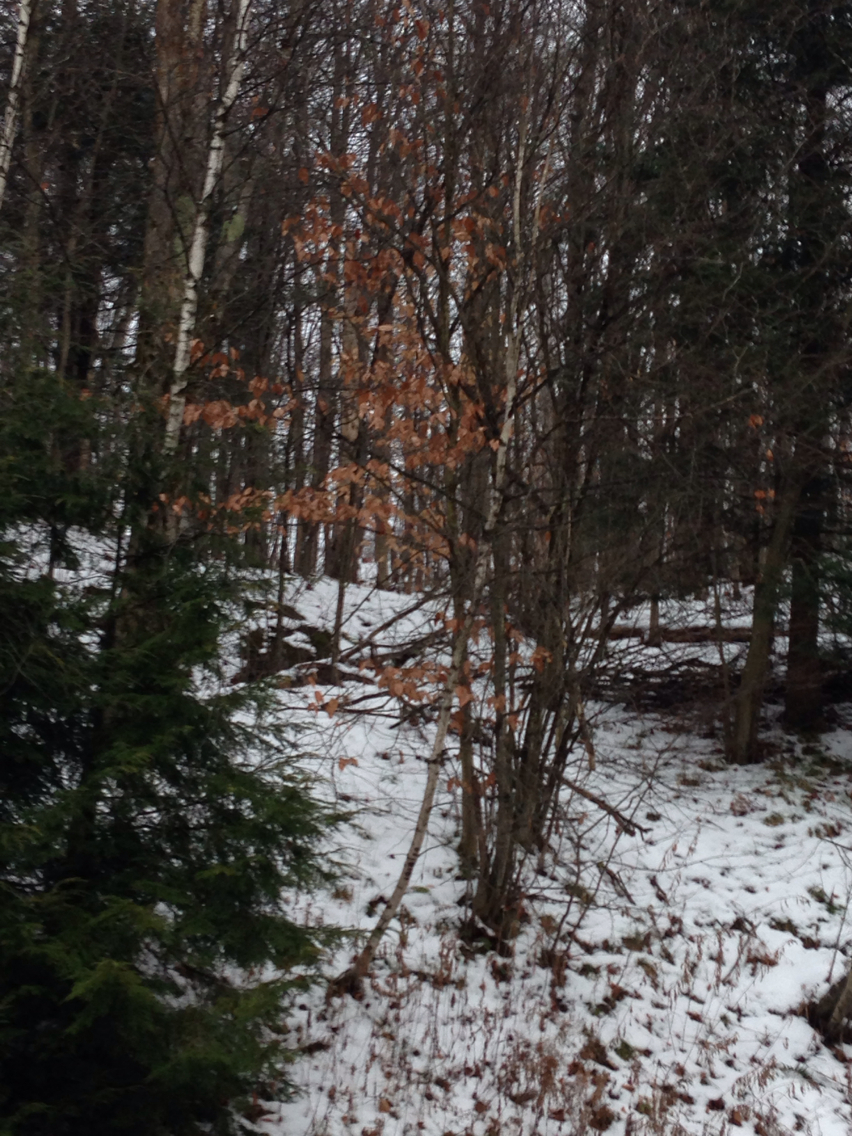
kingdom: Plantae
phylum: Tracheophyta
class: Magnoliopsida
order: Fagales
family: Fagaceae
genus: Fagus
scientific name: Fagus grandifolia
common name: American beech
